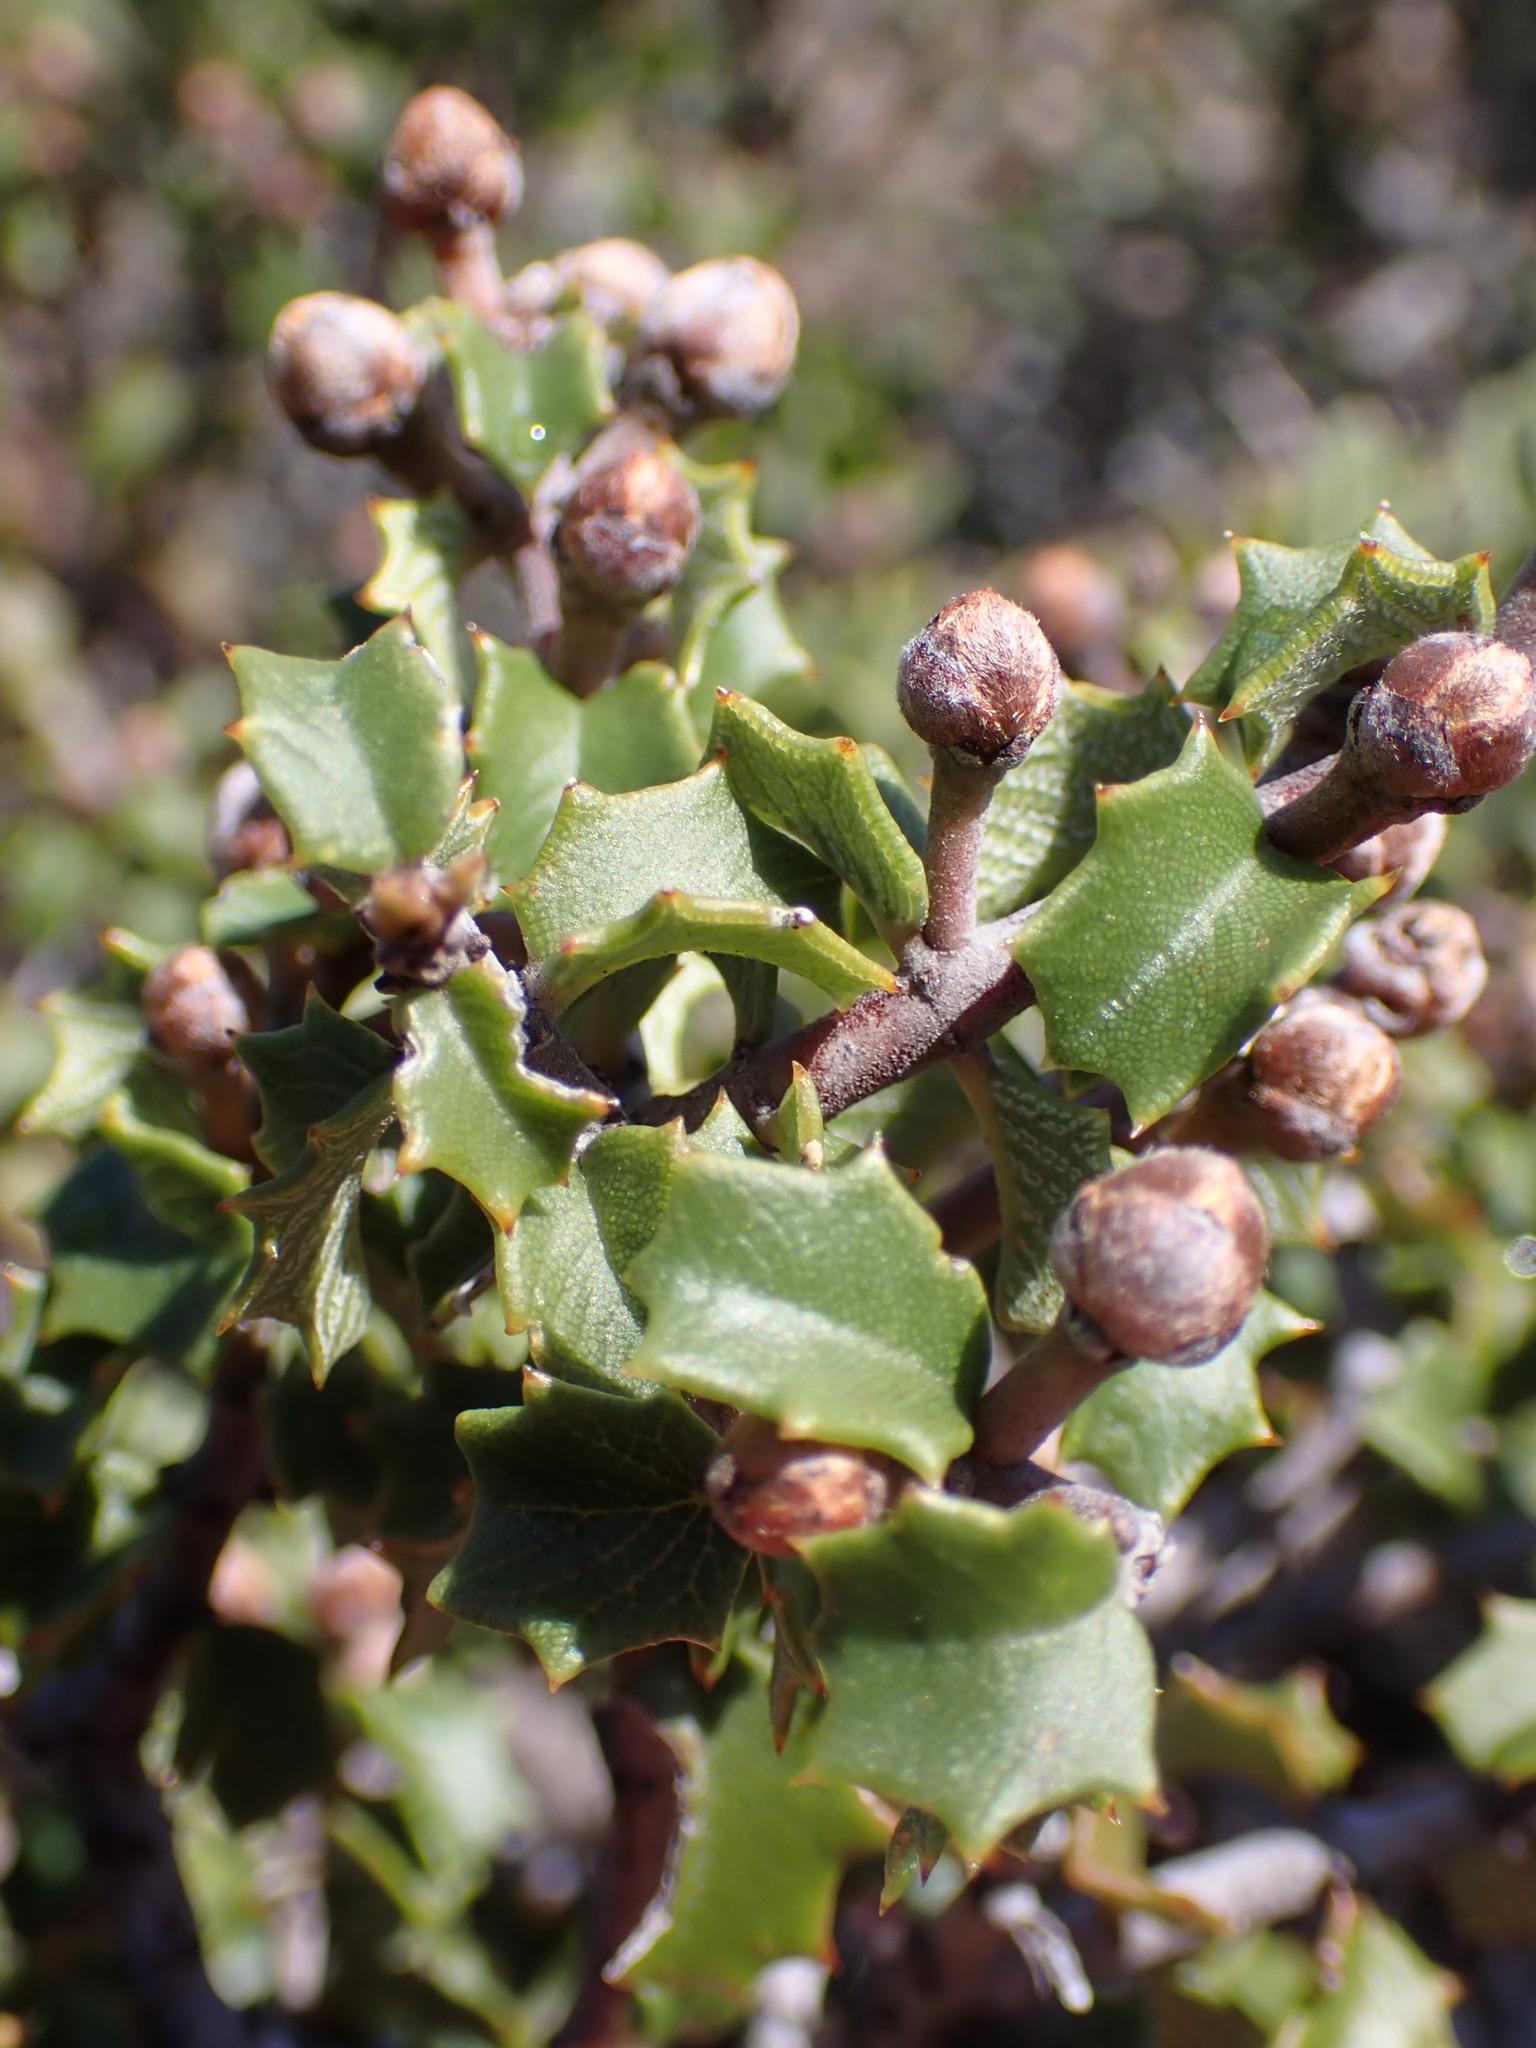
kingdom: Plantae
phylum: Tracheophyta
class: Magnoliopsida
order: Rosales
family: Rhamnaceae
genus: Ceanothus
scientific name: Ceanothus jepsonii
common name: Muskbrush
